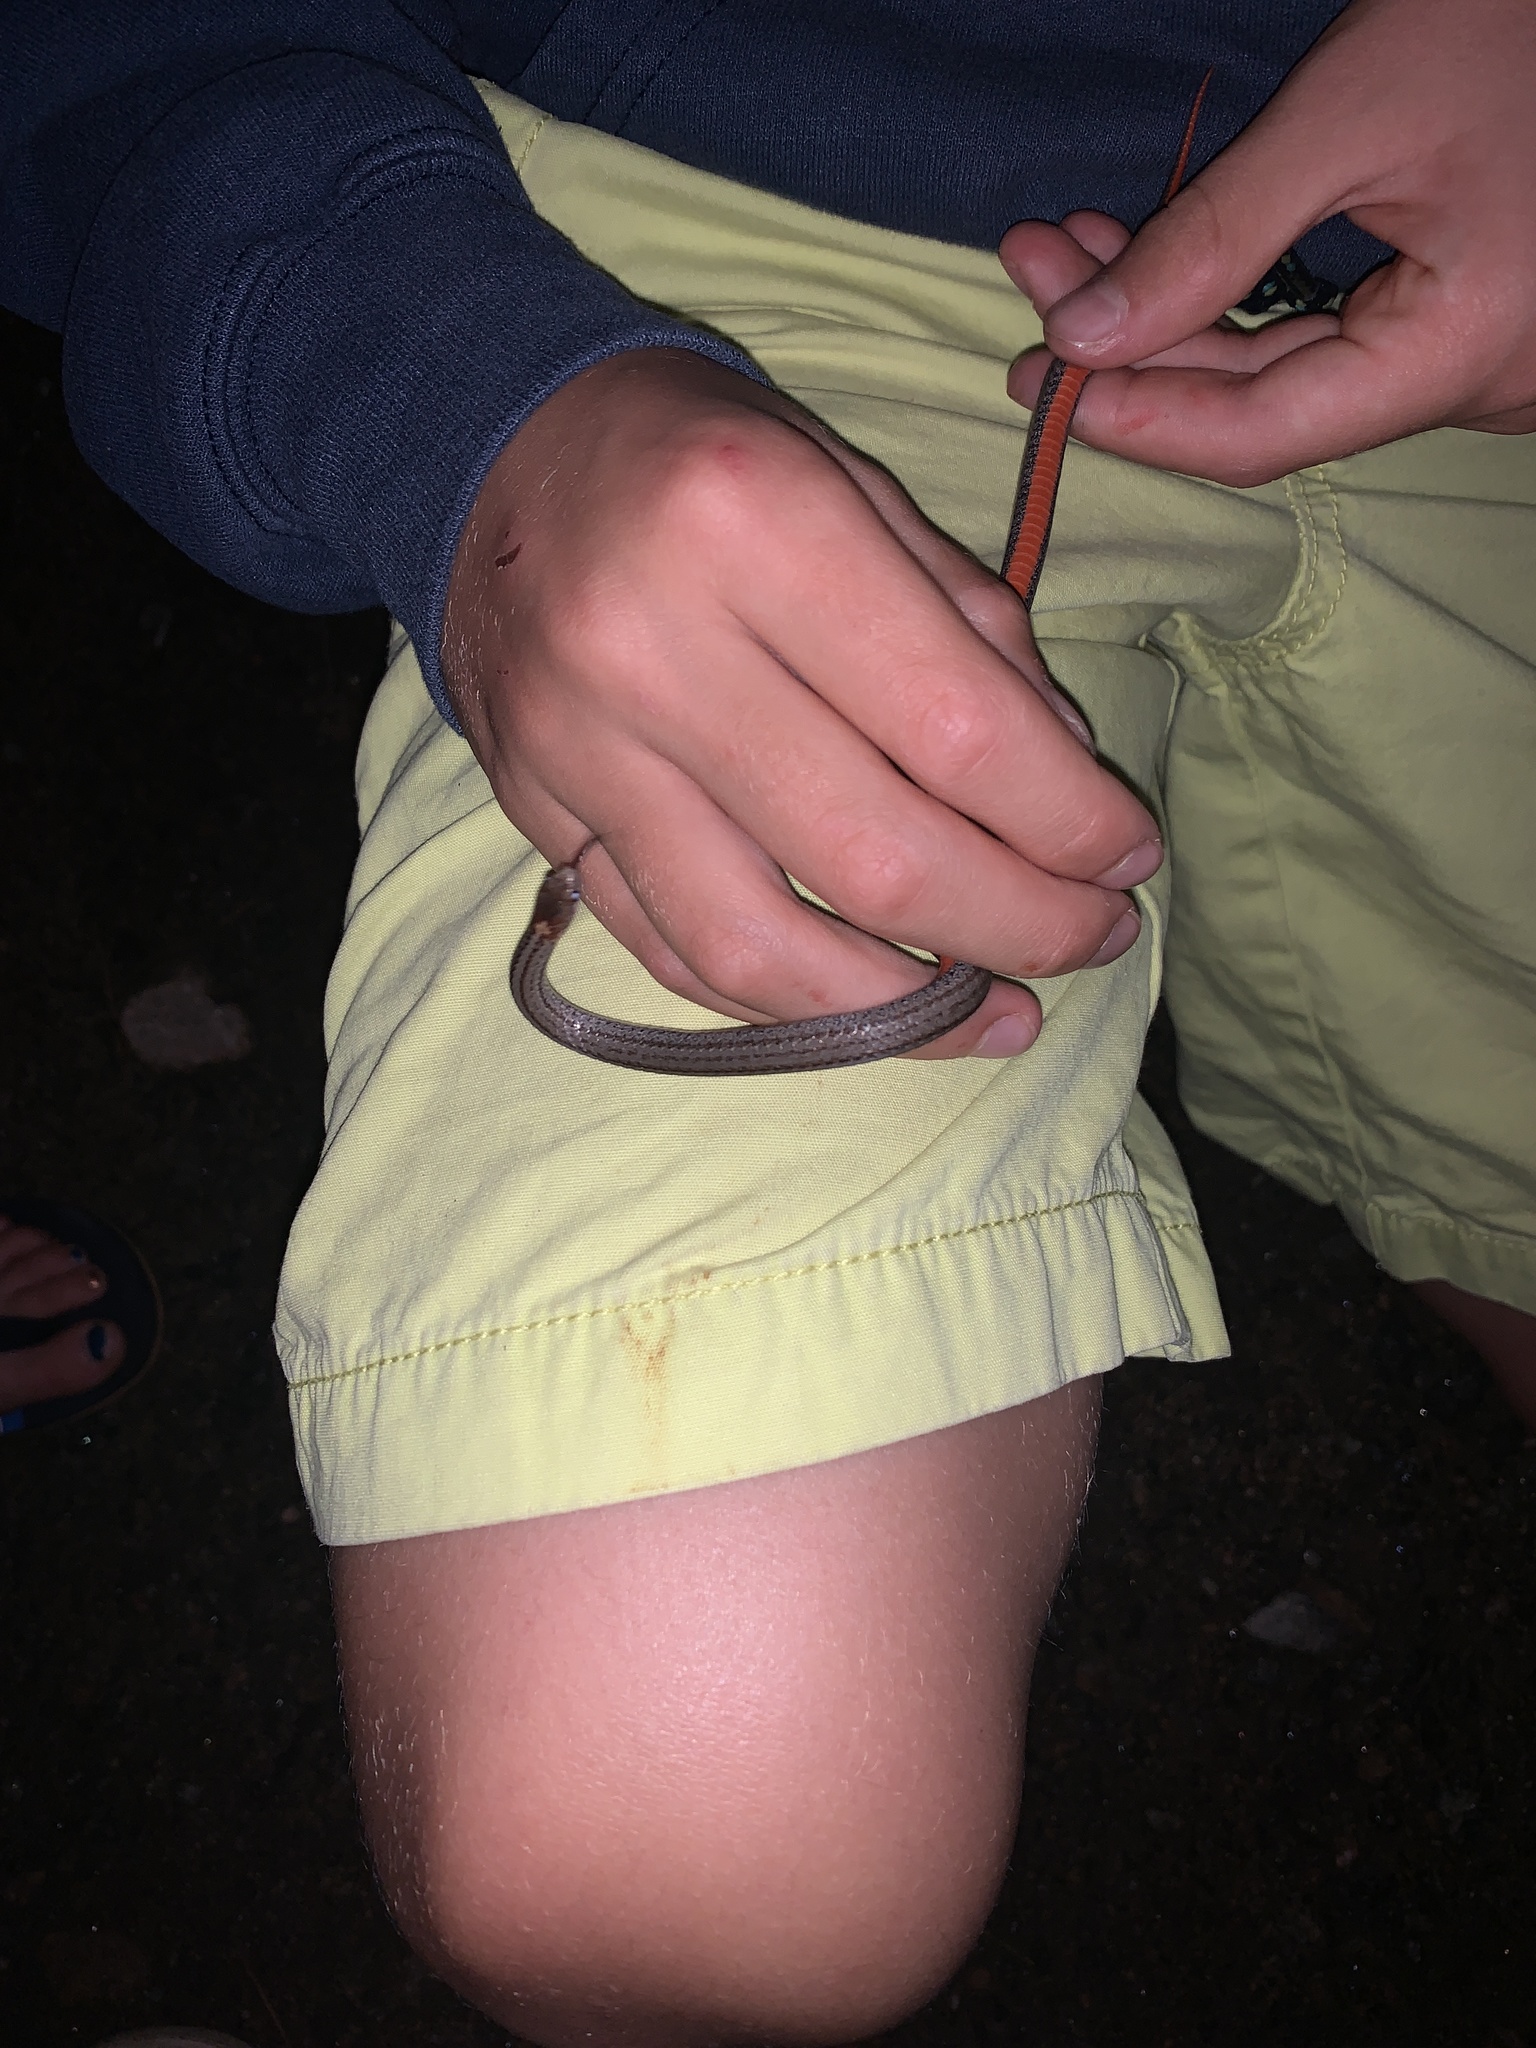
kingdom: Animalia
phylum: Chordata
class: Squamata
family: Colubridae
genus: Storeria
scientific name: Storeria occipitomaculata
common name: Redbelly snake
